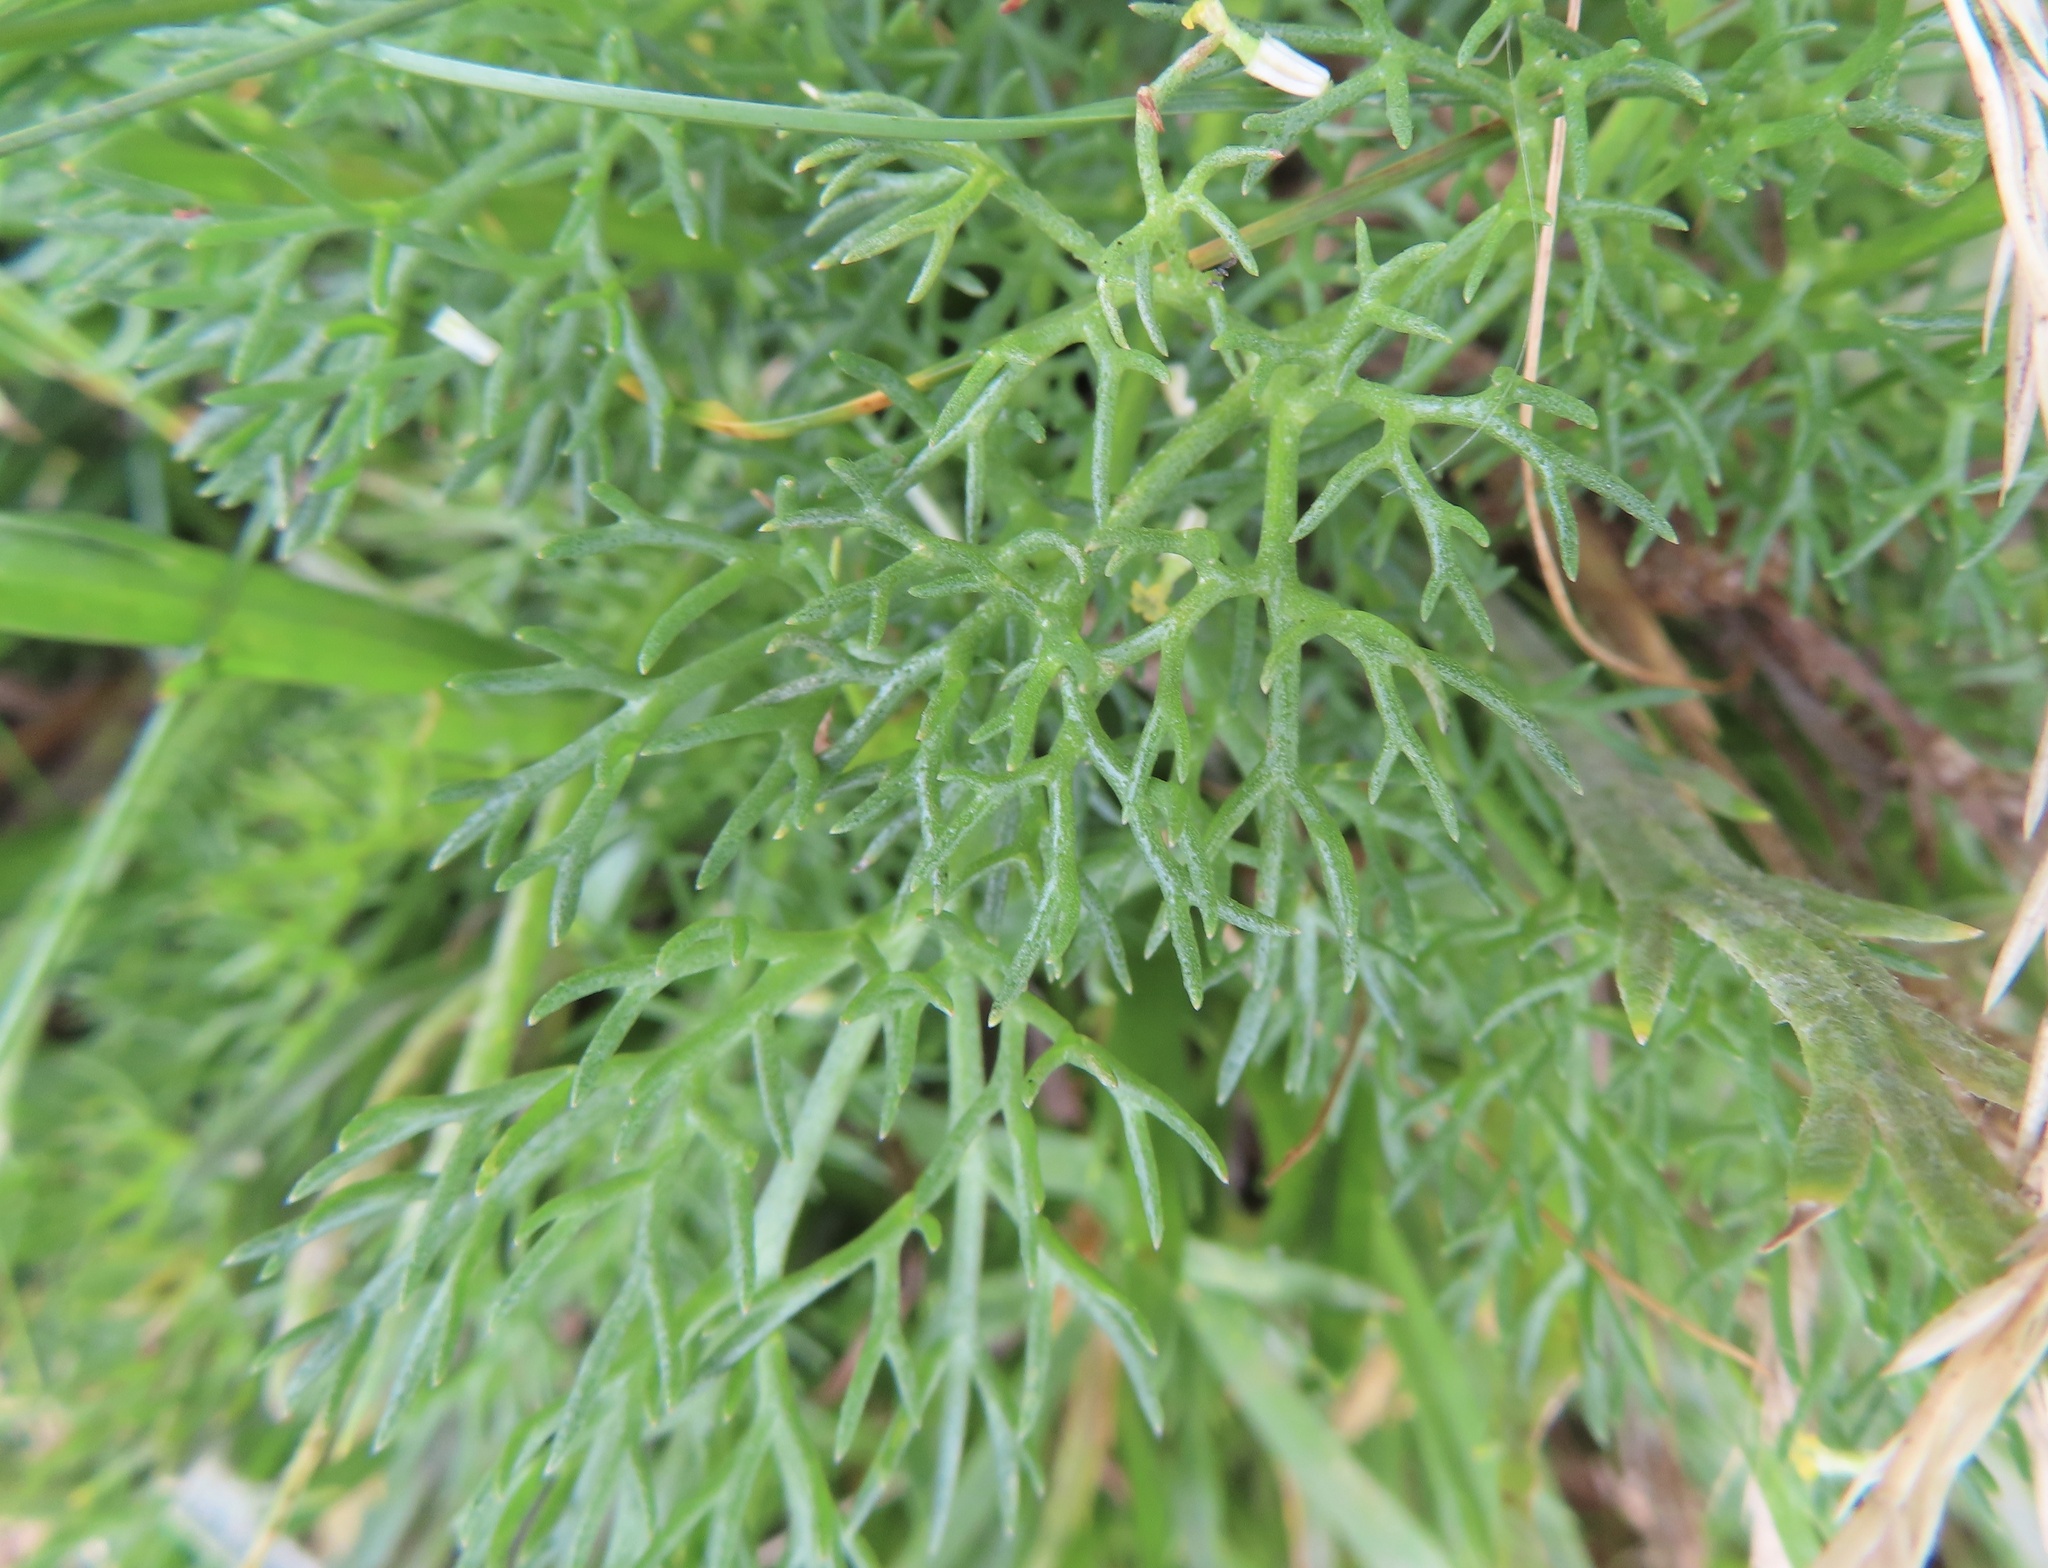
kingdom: Plantae
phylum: Tracheophyta
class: Magnoliopsida
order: Asterales
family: Asteraceae
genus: Tripleurospermum
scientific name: Tripleurospermum maritimum
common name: Sea mayweed
